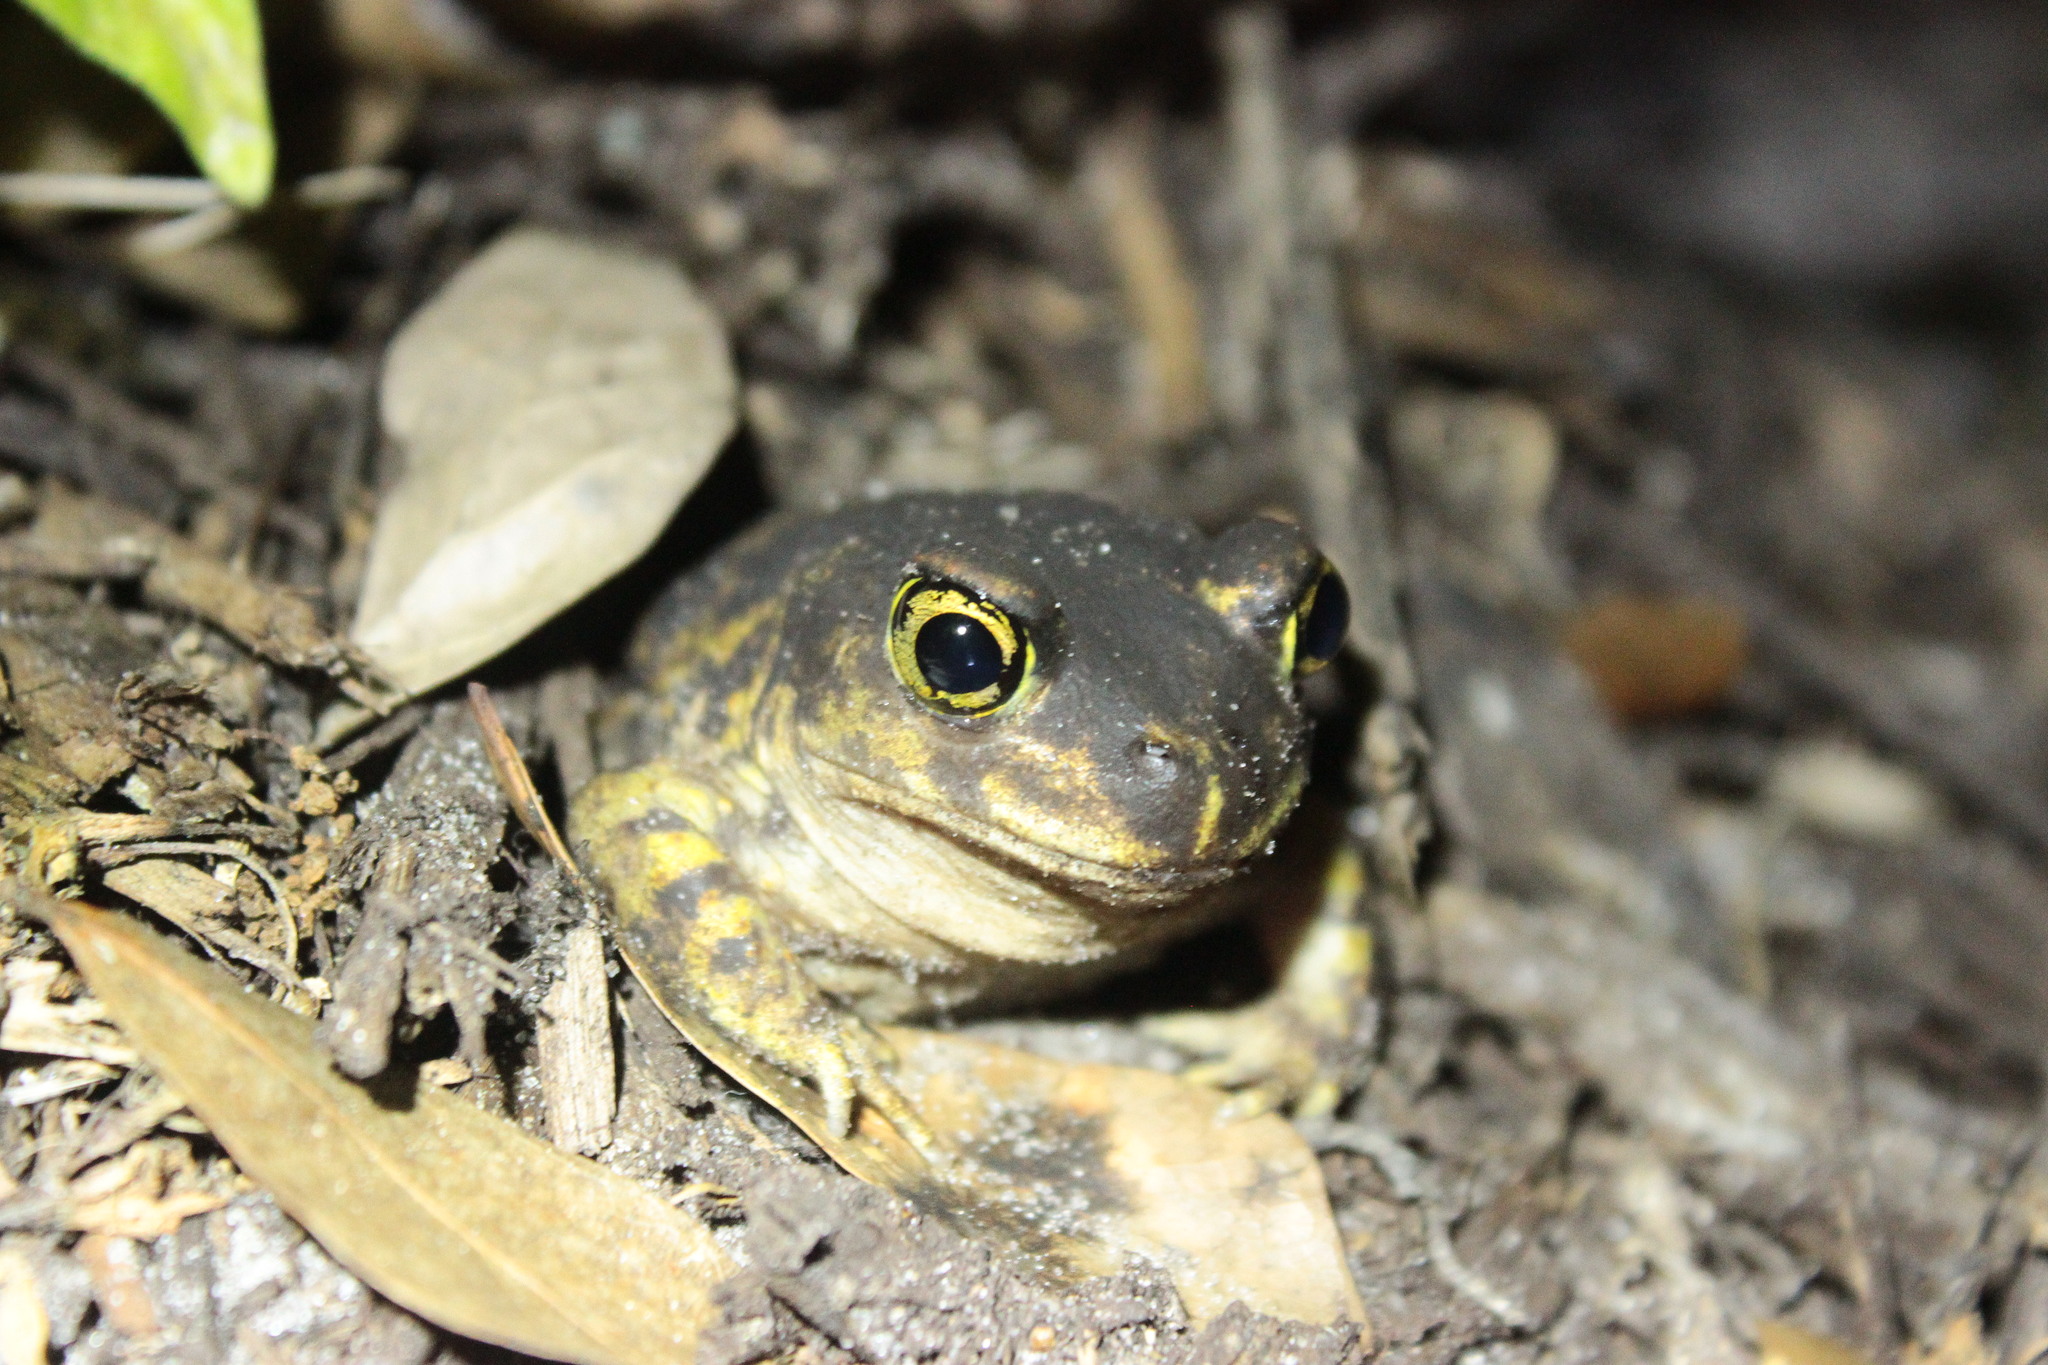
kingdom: Animalia
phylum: Chordata
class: Amphibia
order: Anura
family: Scaphiopodidae
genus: Scaphiopus
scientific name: Scaphiopus holbrookii
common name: Eastern spadefoot toad
